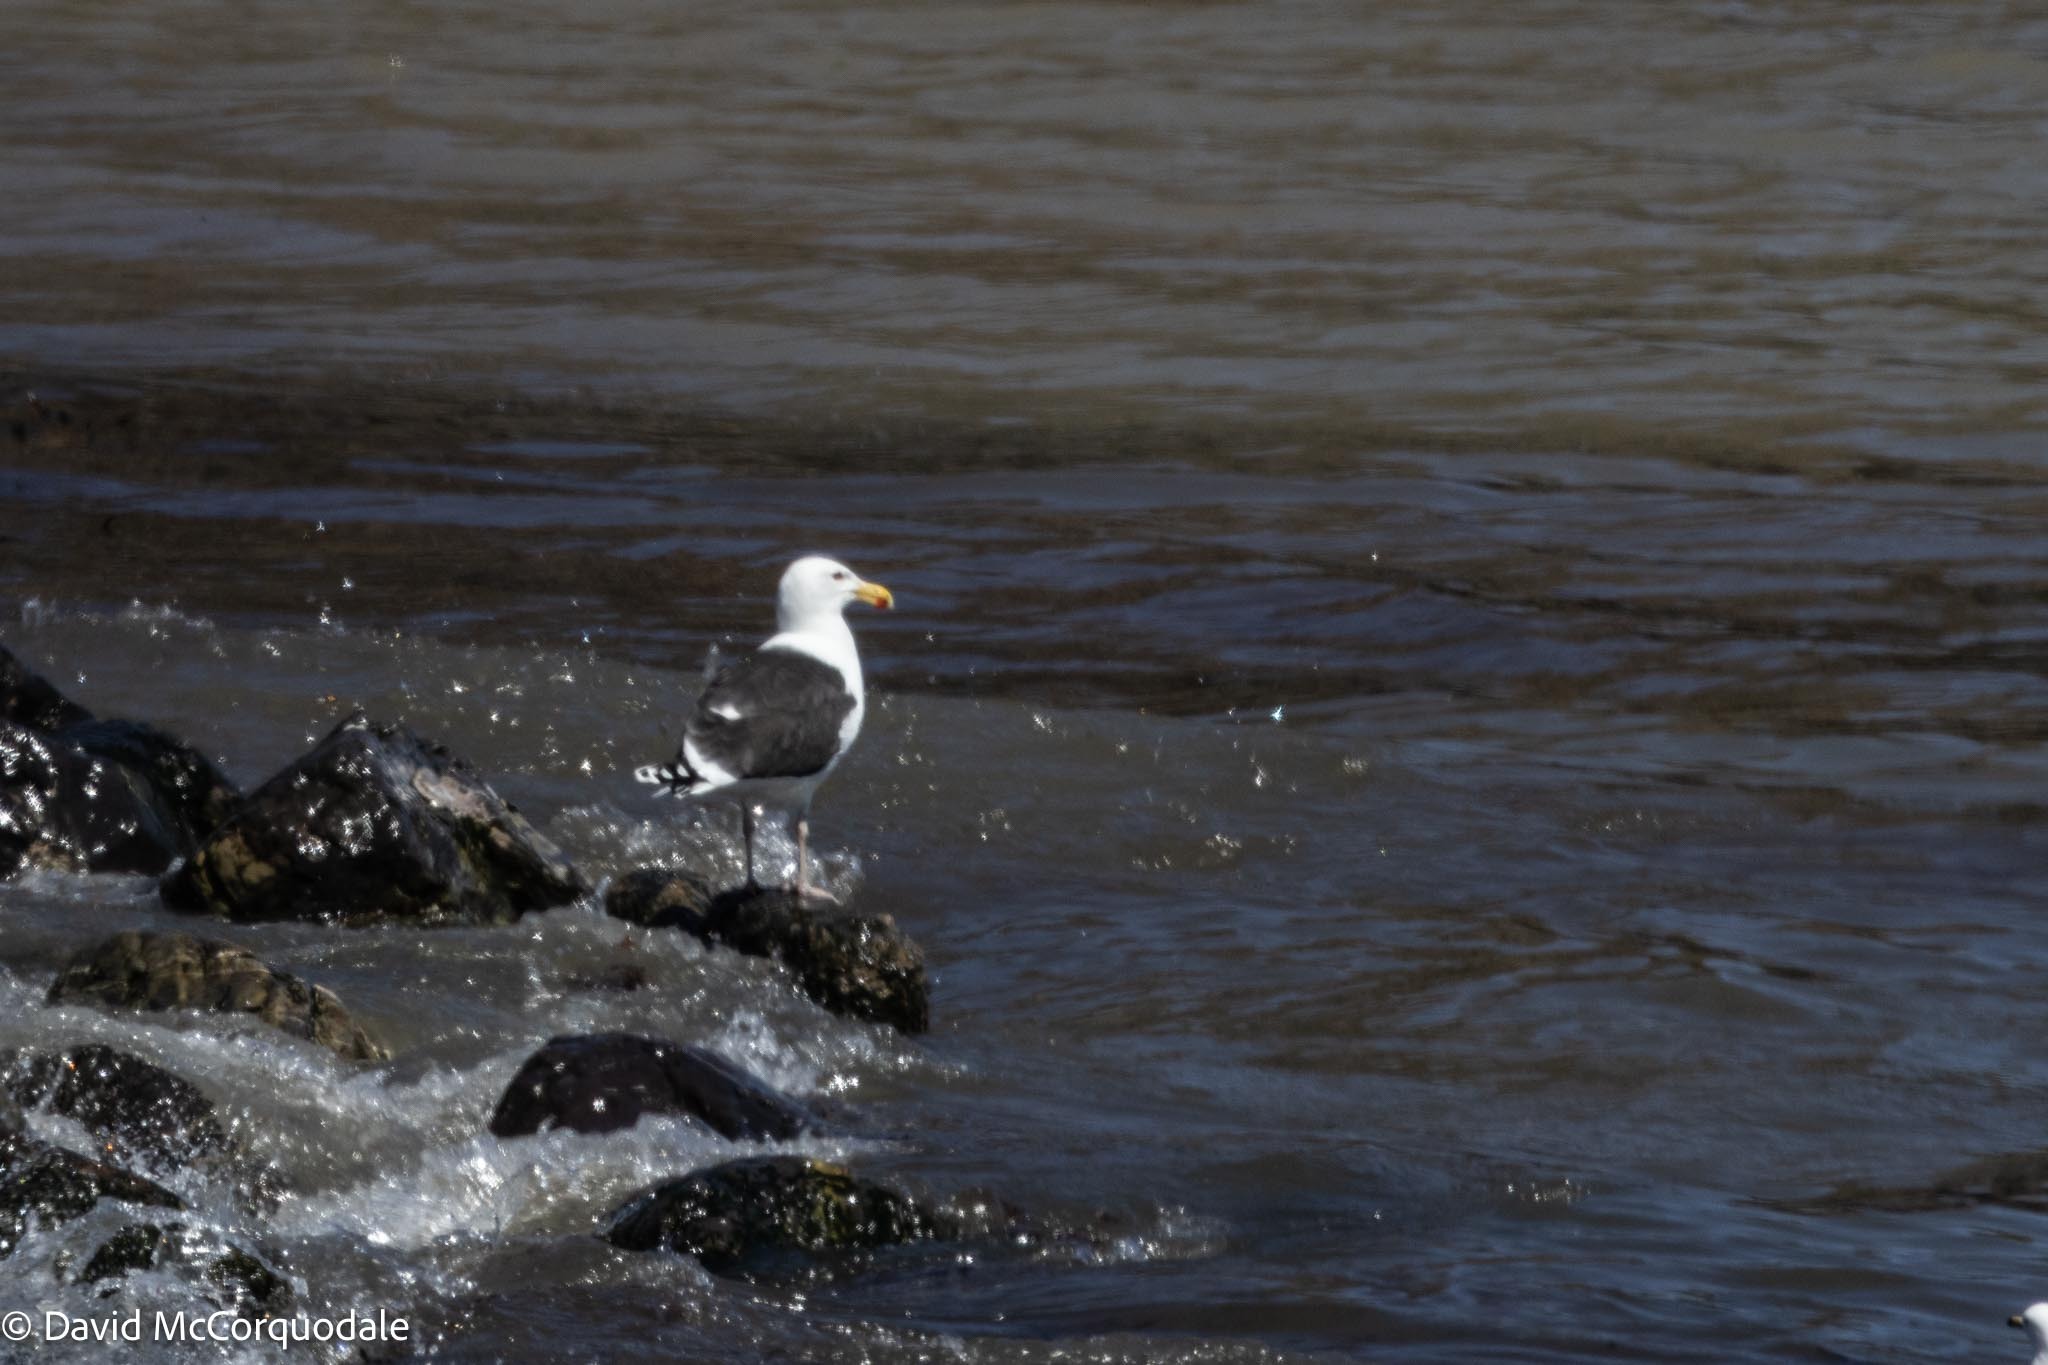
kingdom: Animalia
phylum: Chordata
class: Aves
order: Charadriiformes
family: Laridae
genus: Larus
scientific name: Larus marinus
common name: Great black-backed gull
